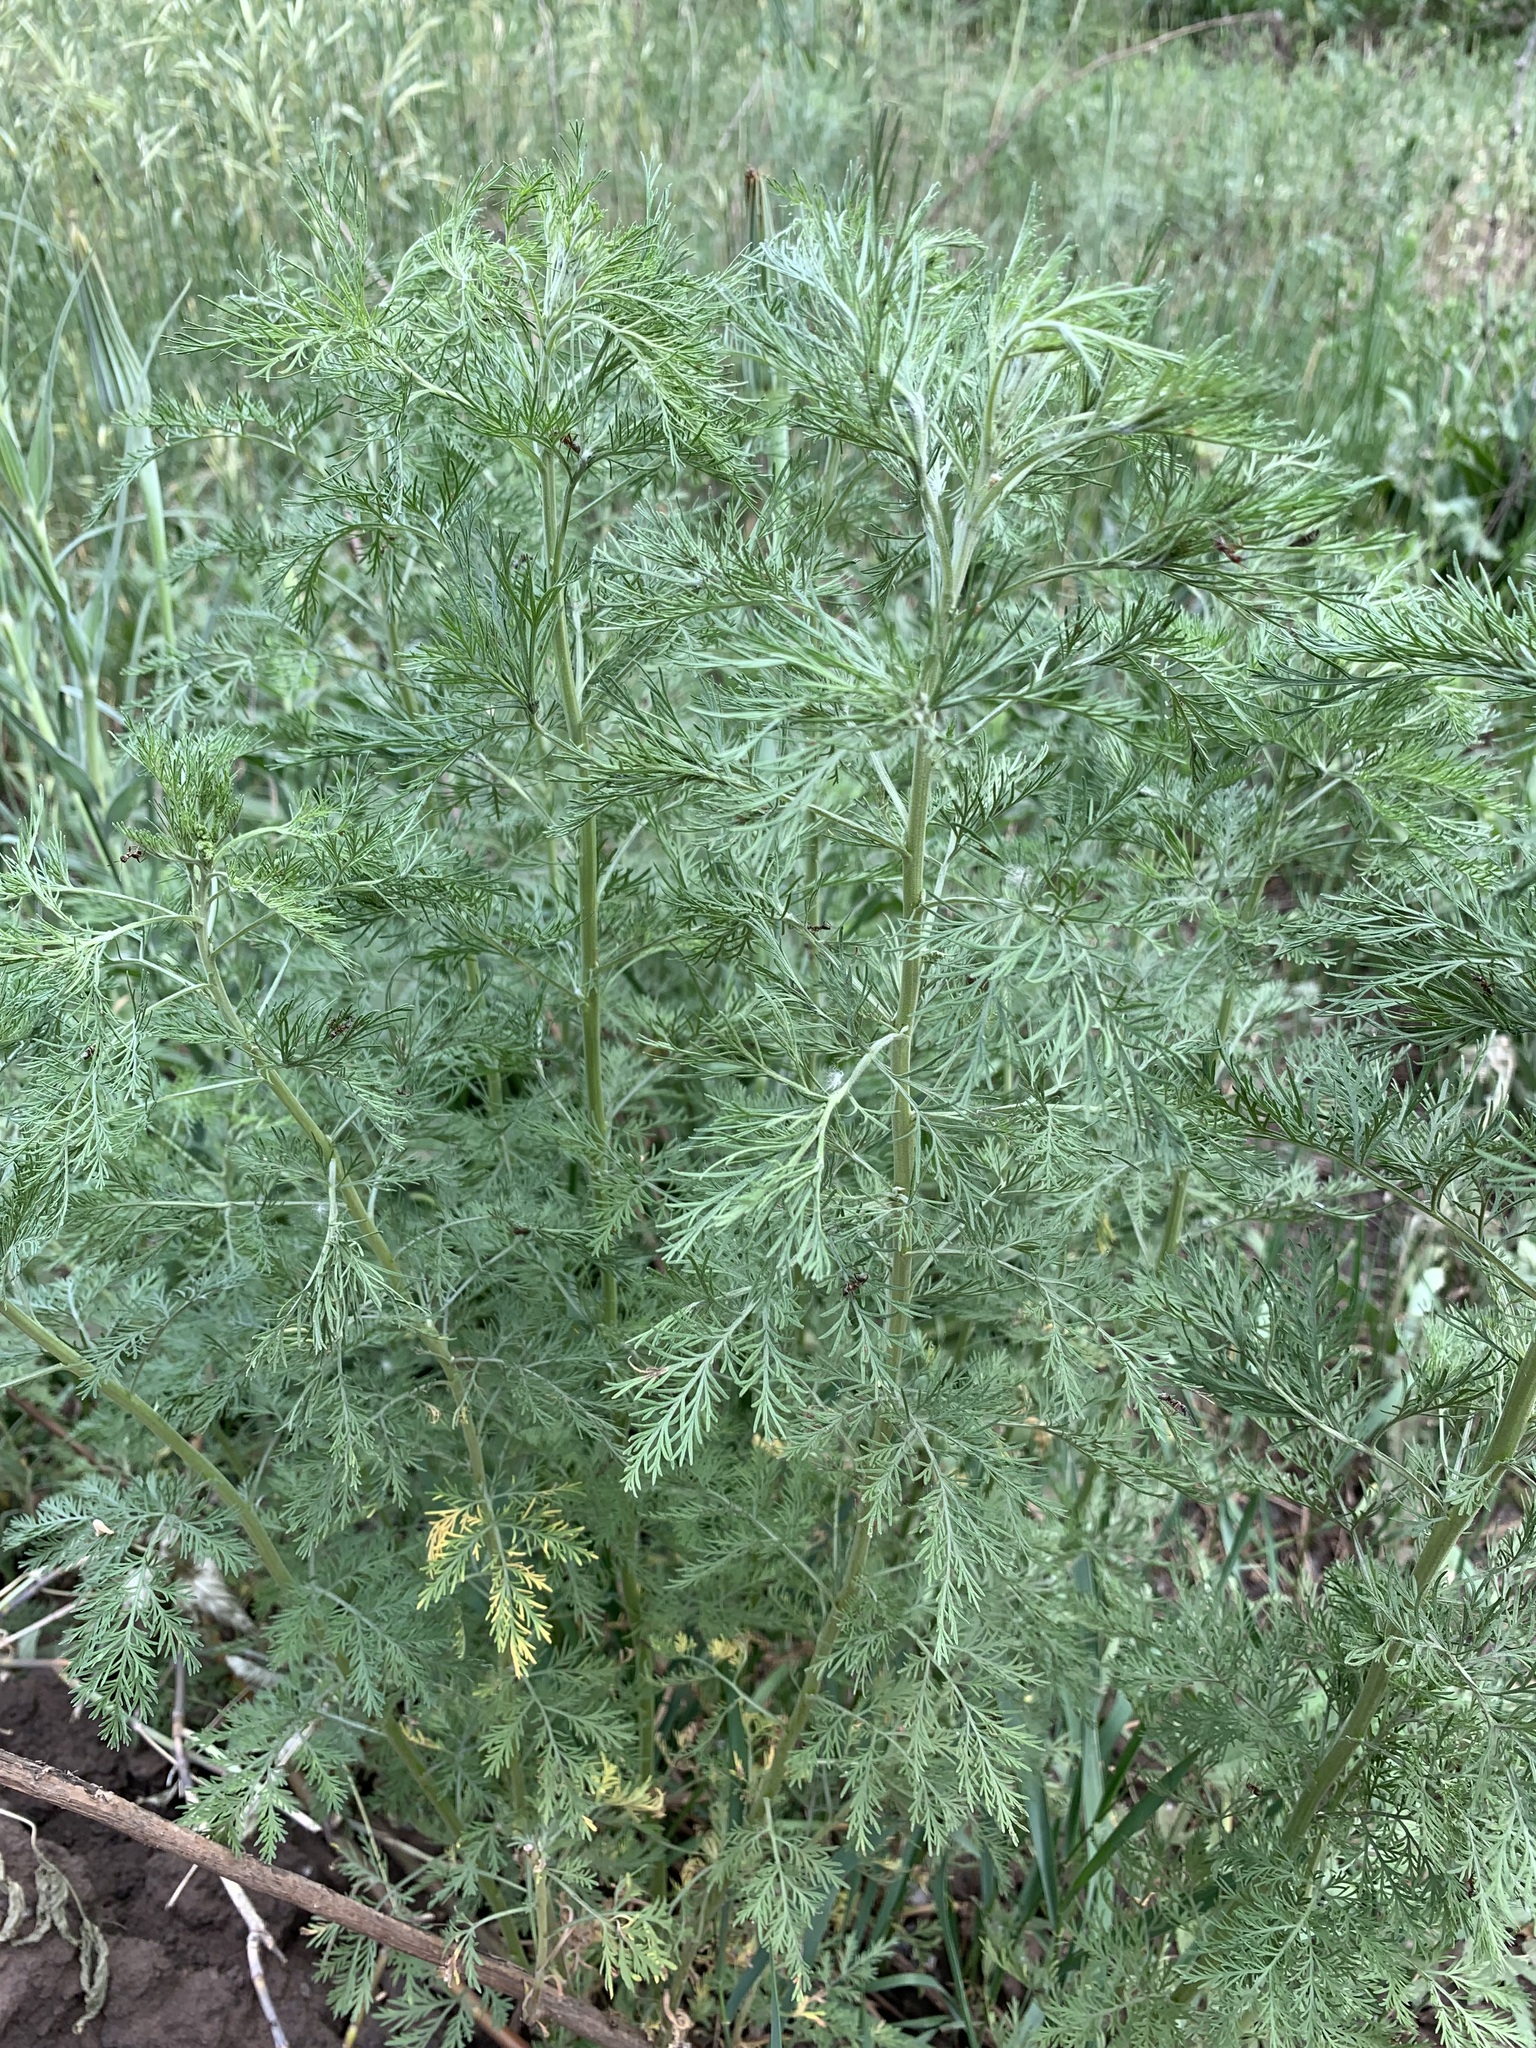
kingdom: Plantae
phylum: Tracheophyta
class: Magnoliopsida
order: Asterales
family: Asteraceae
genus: Artemisia
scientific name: Artemisia abrotanum
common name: Southernwood
